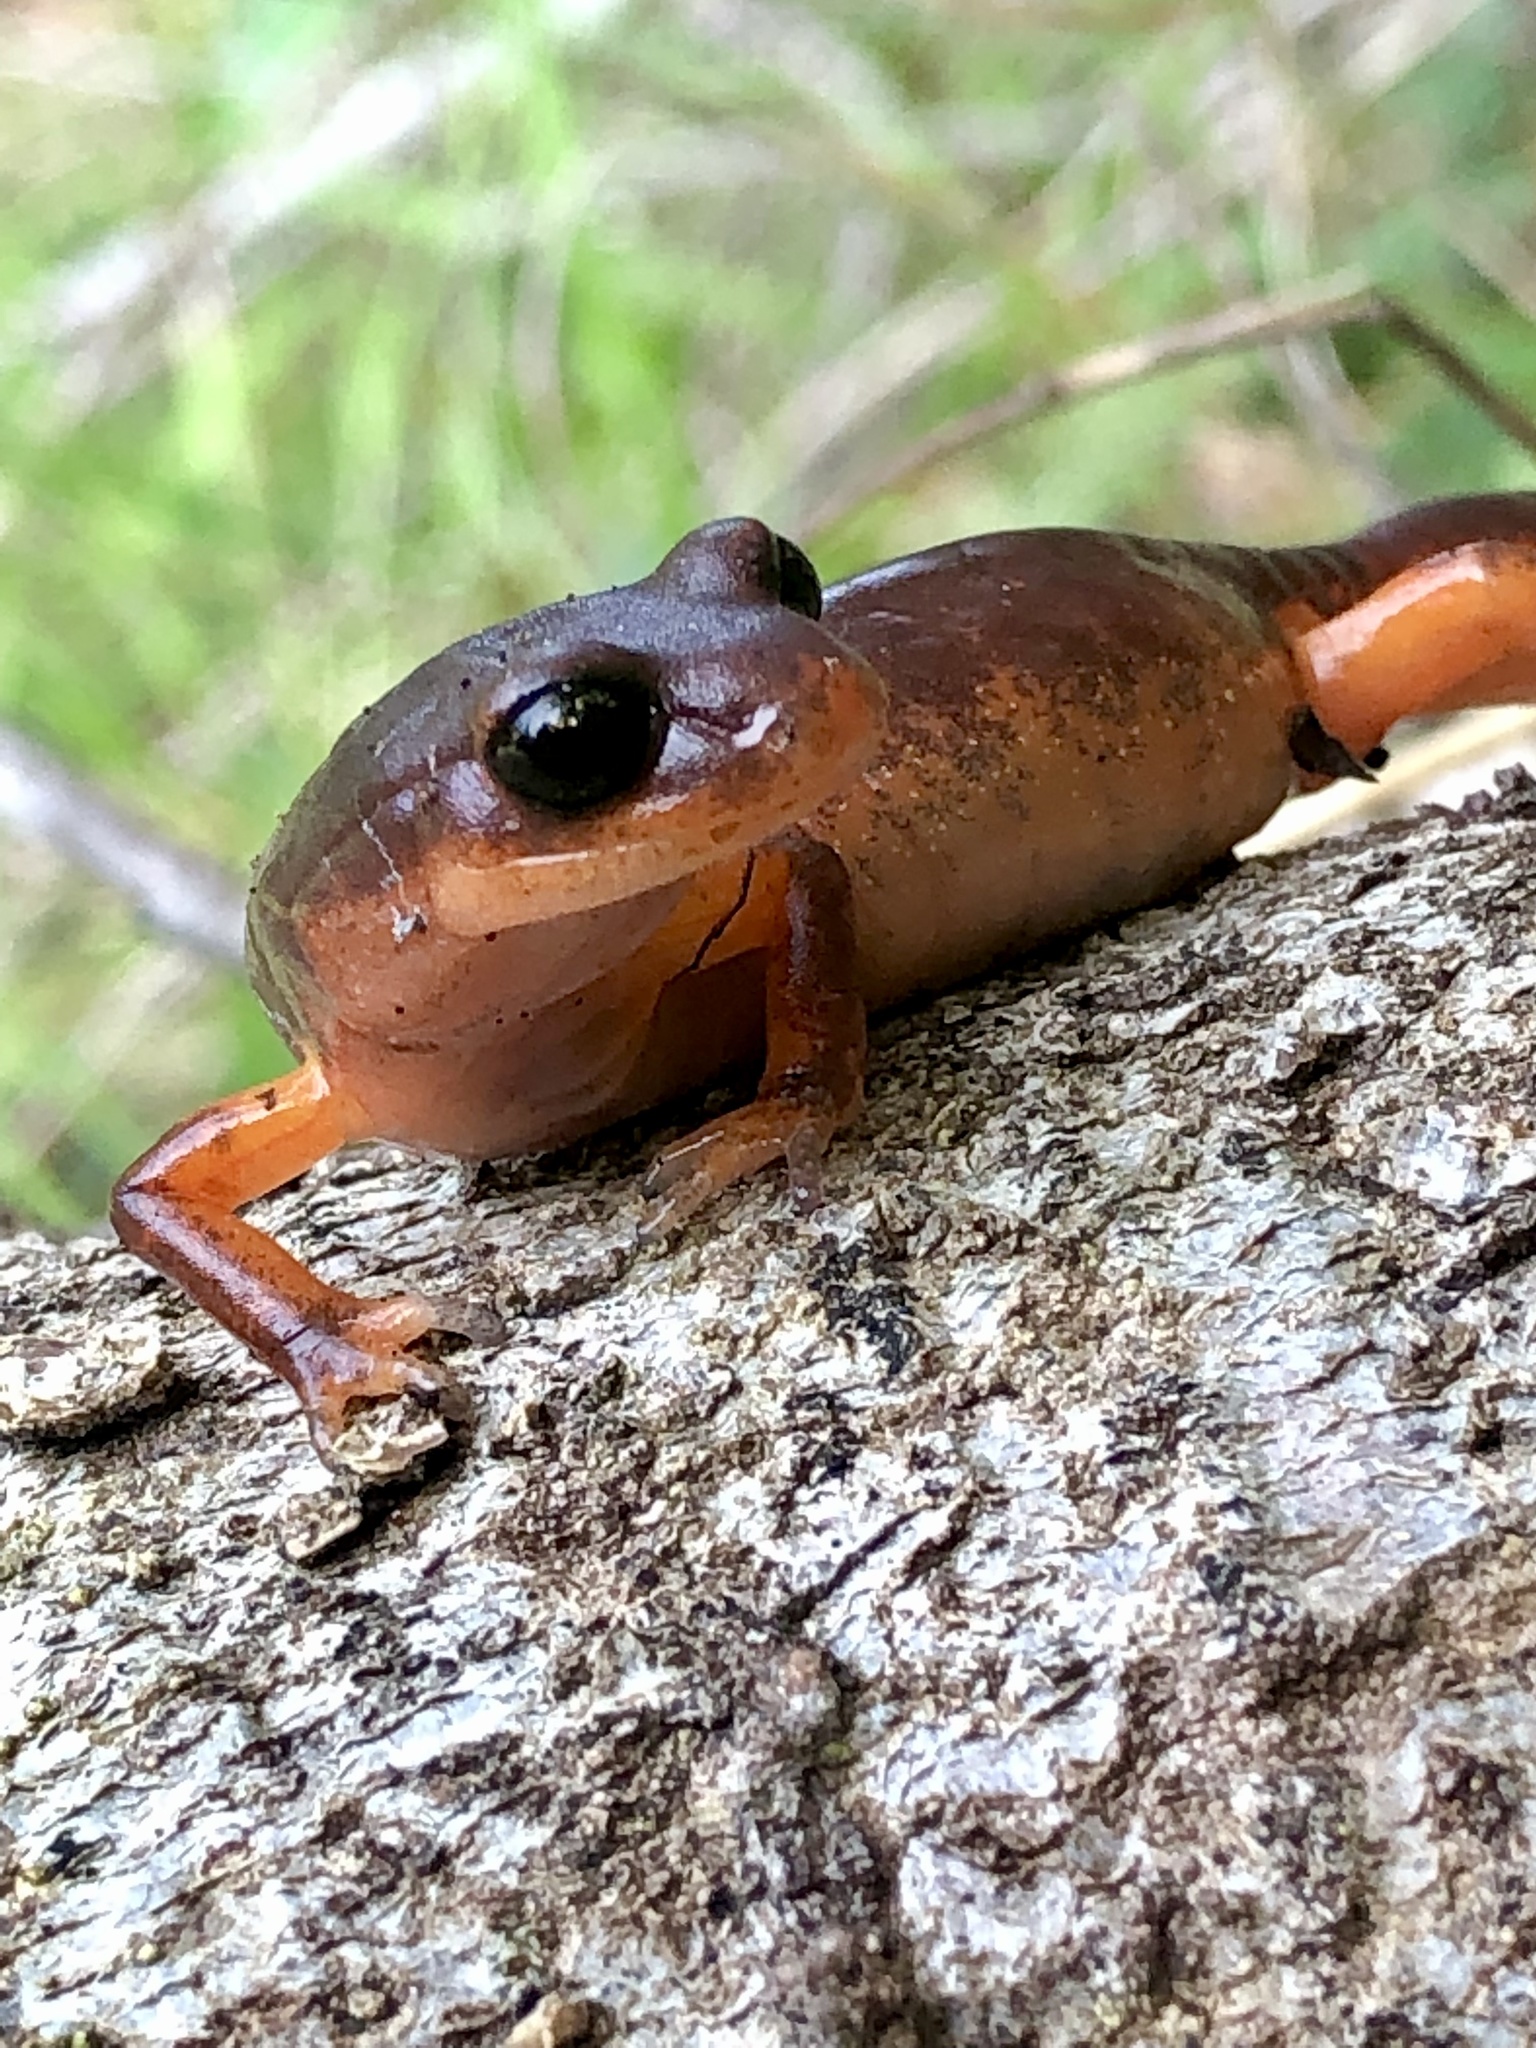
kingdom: Animalia
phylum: Chordata
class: Amphibia
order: Caudata
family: Plethodontidae
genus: Ensatina
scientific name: Ensatina eschscholtzii
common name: Ensatina
